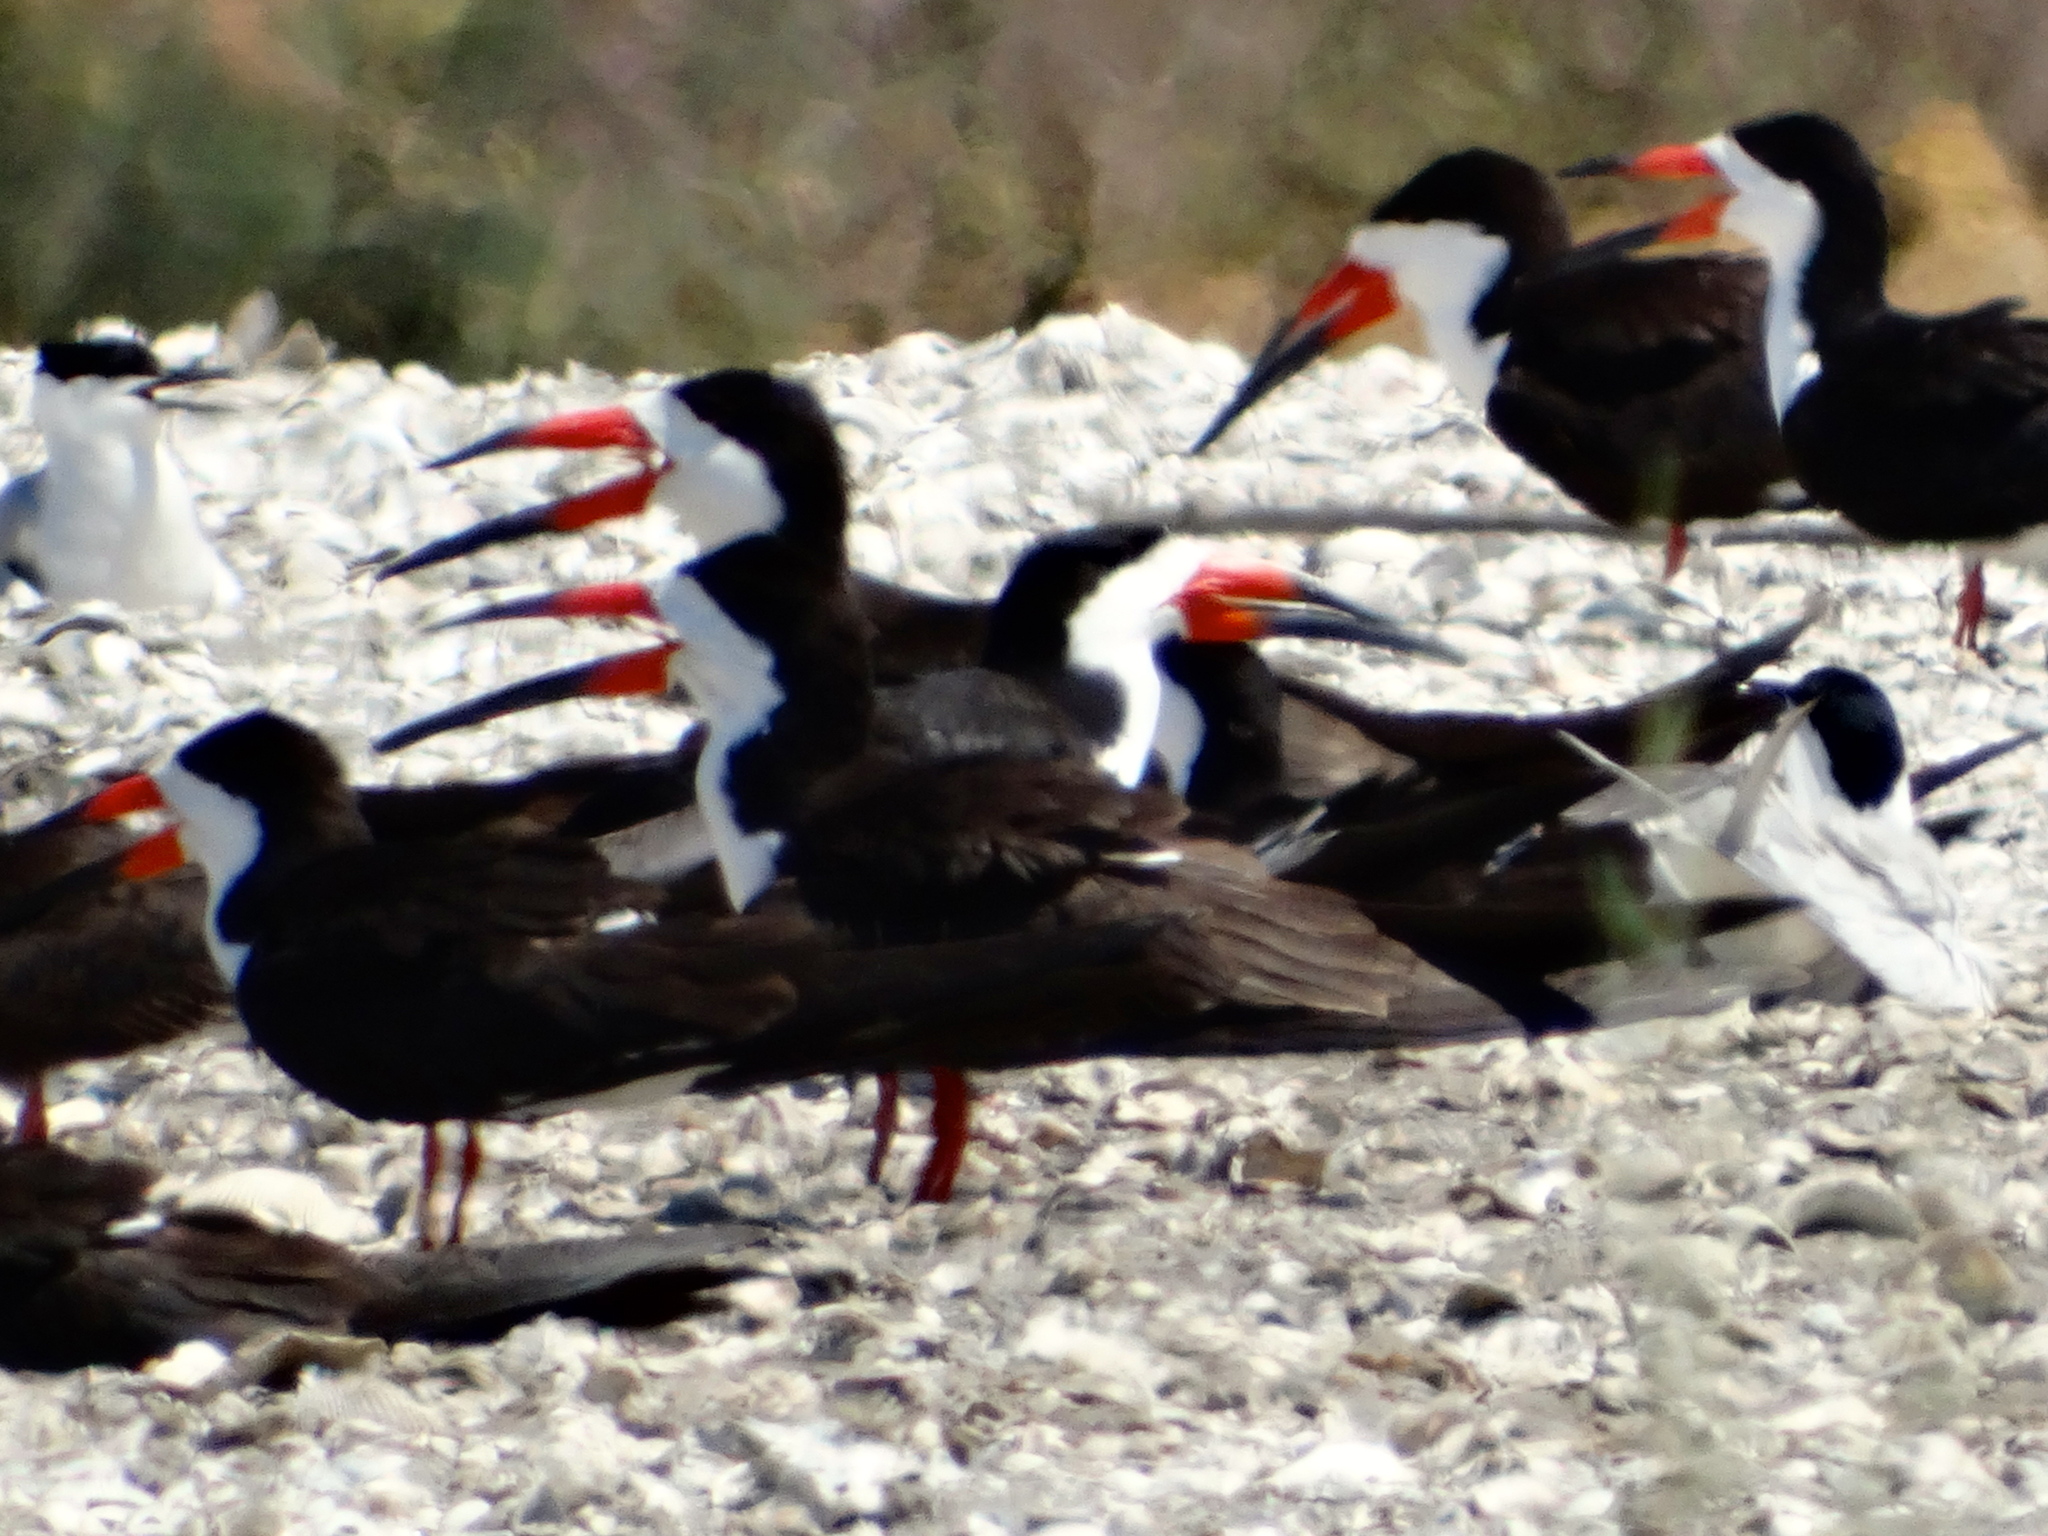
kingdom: Animalia
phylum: Chordata
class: Aves
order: Charadriiformes
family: Laridae
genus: Rynchops
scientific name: Rynchops niger
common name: Black skimmer
